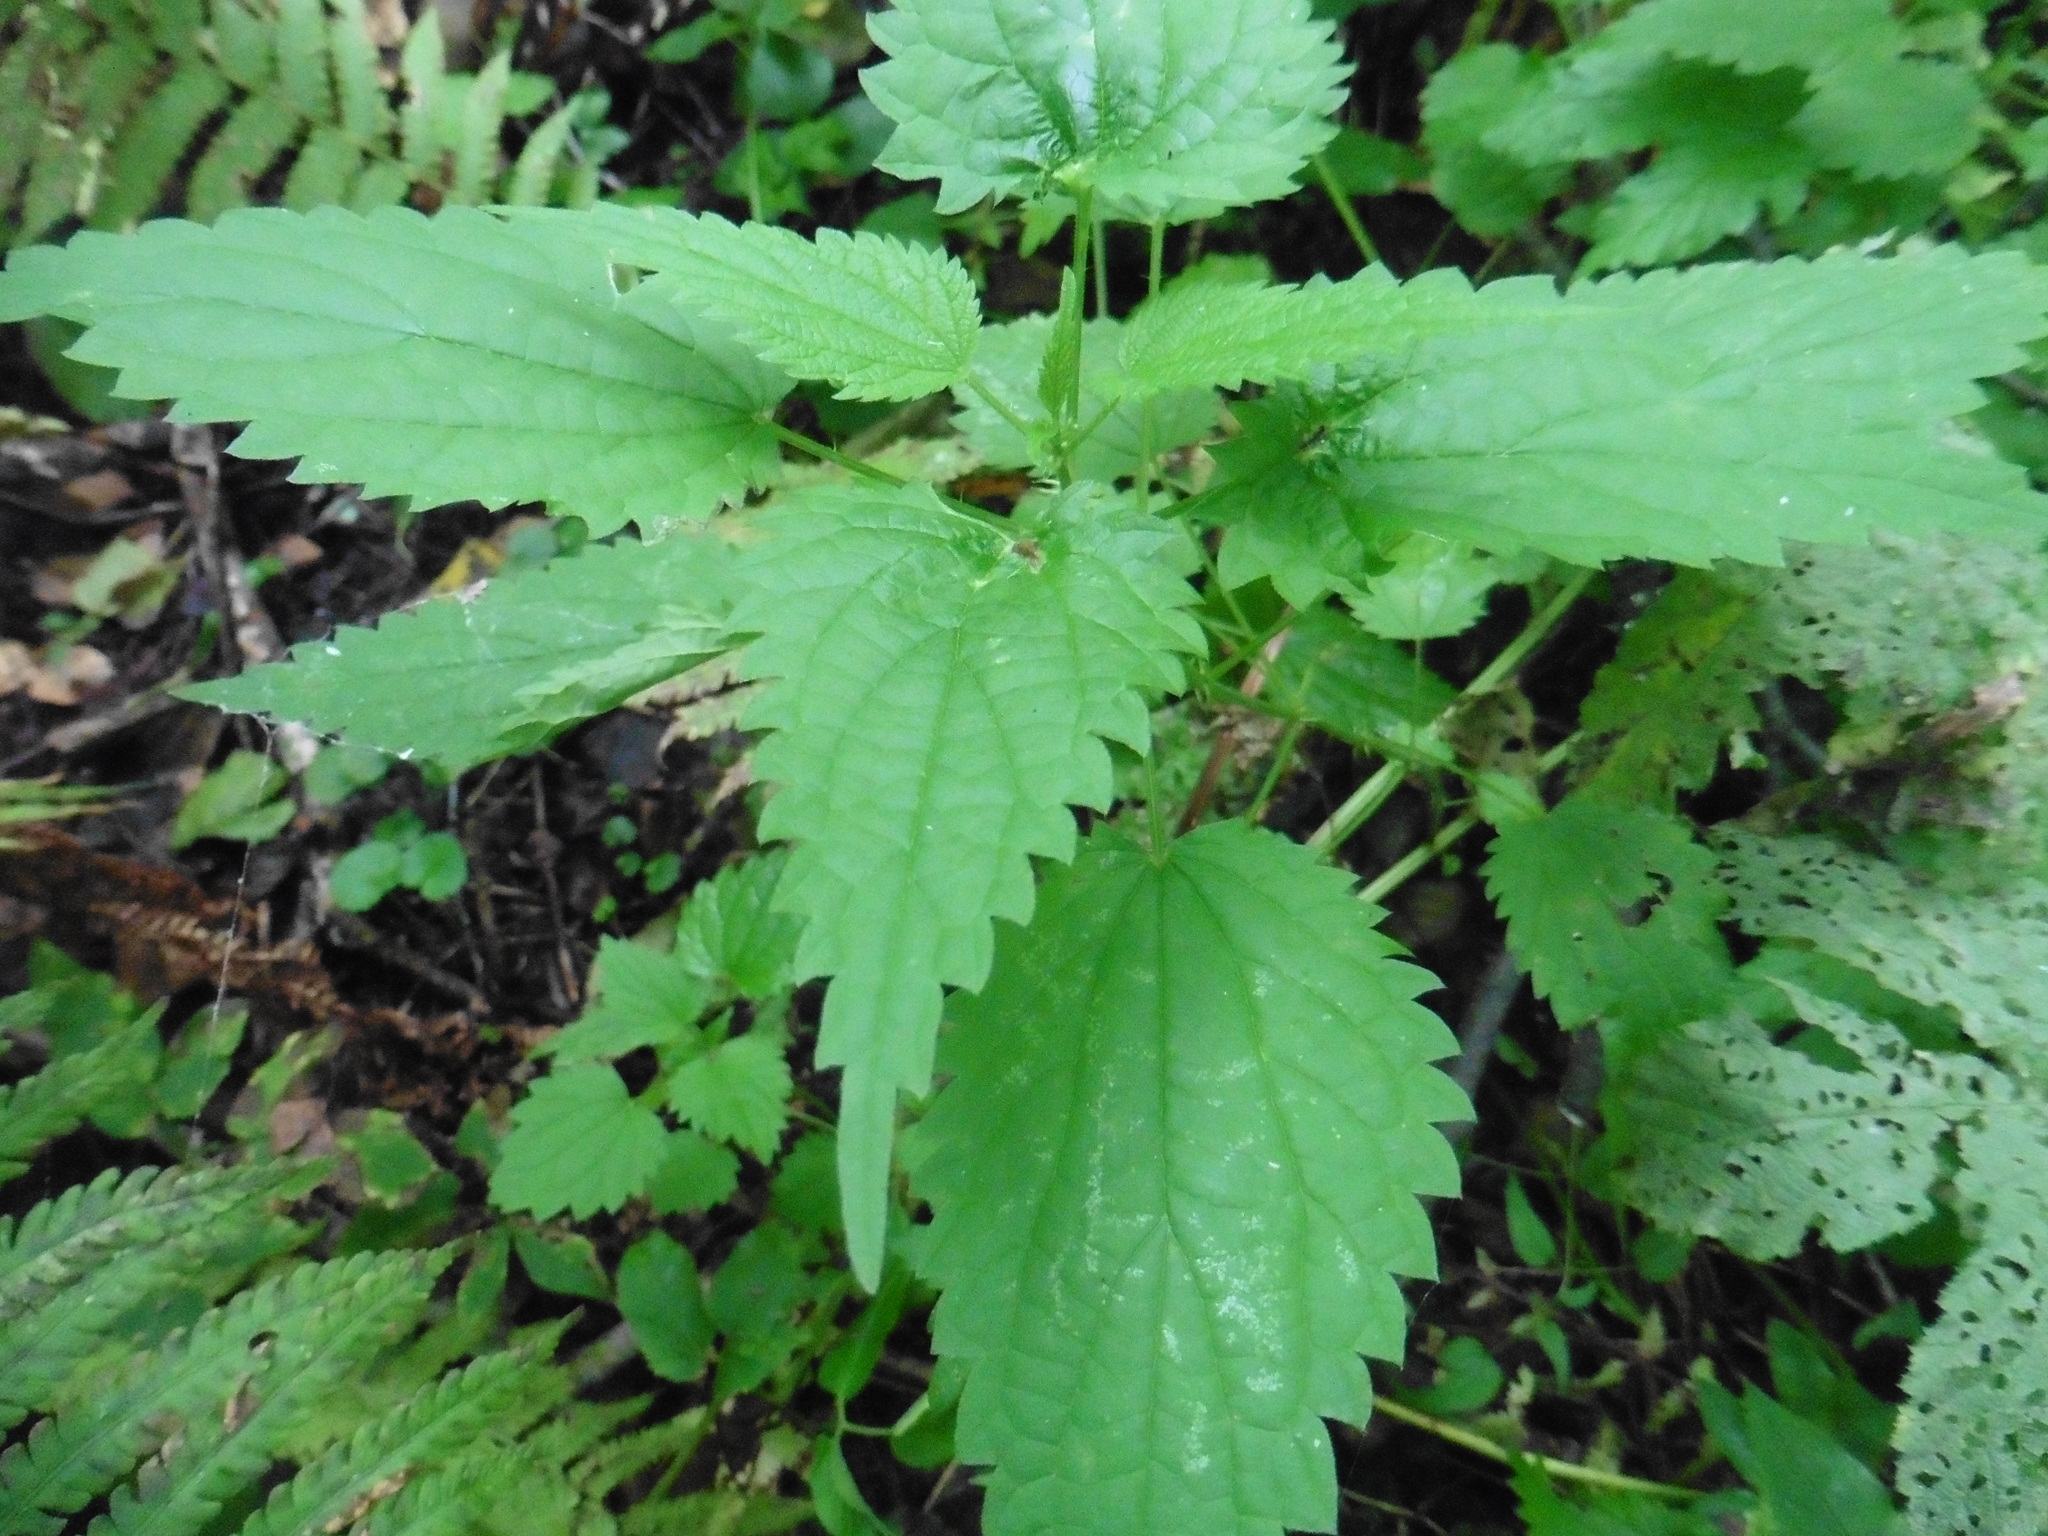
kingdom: Plantae
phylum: Tracheophyta
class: Magnoliopsida
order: Rosales
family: Urticaceae
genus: Urtica
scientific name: Urtica dioica
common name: Common nettle
